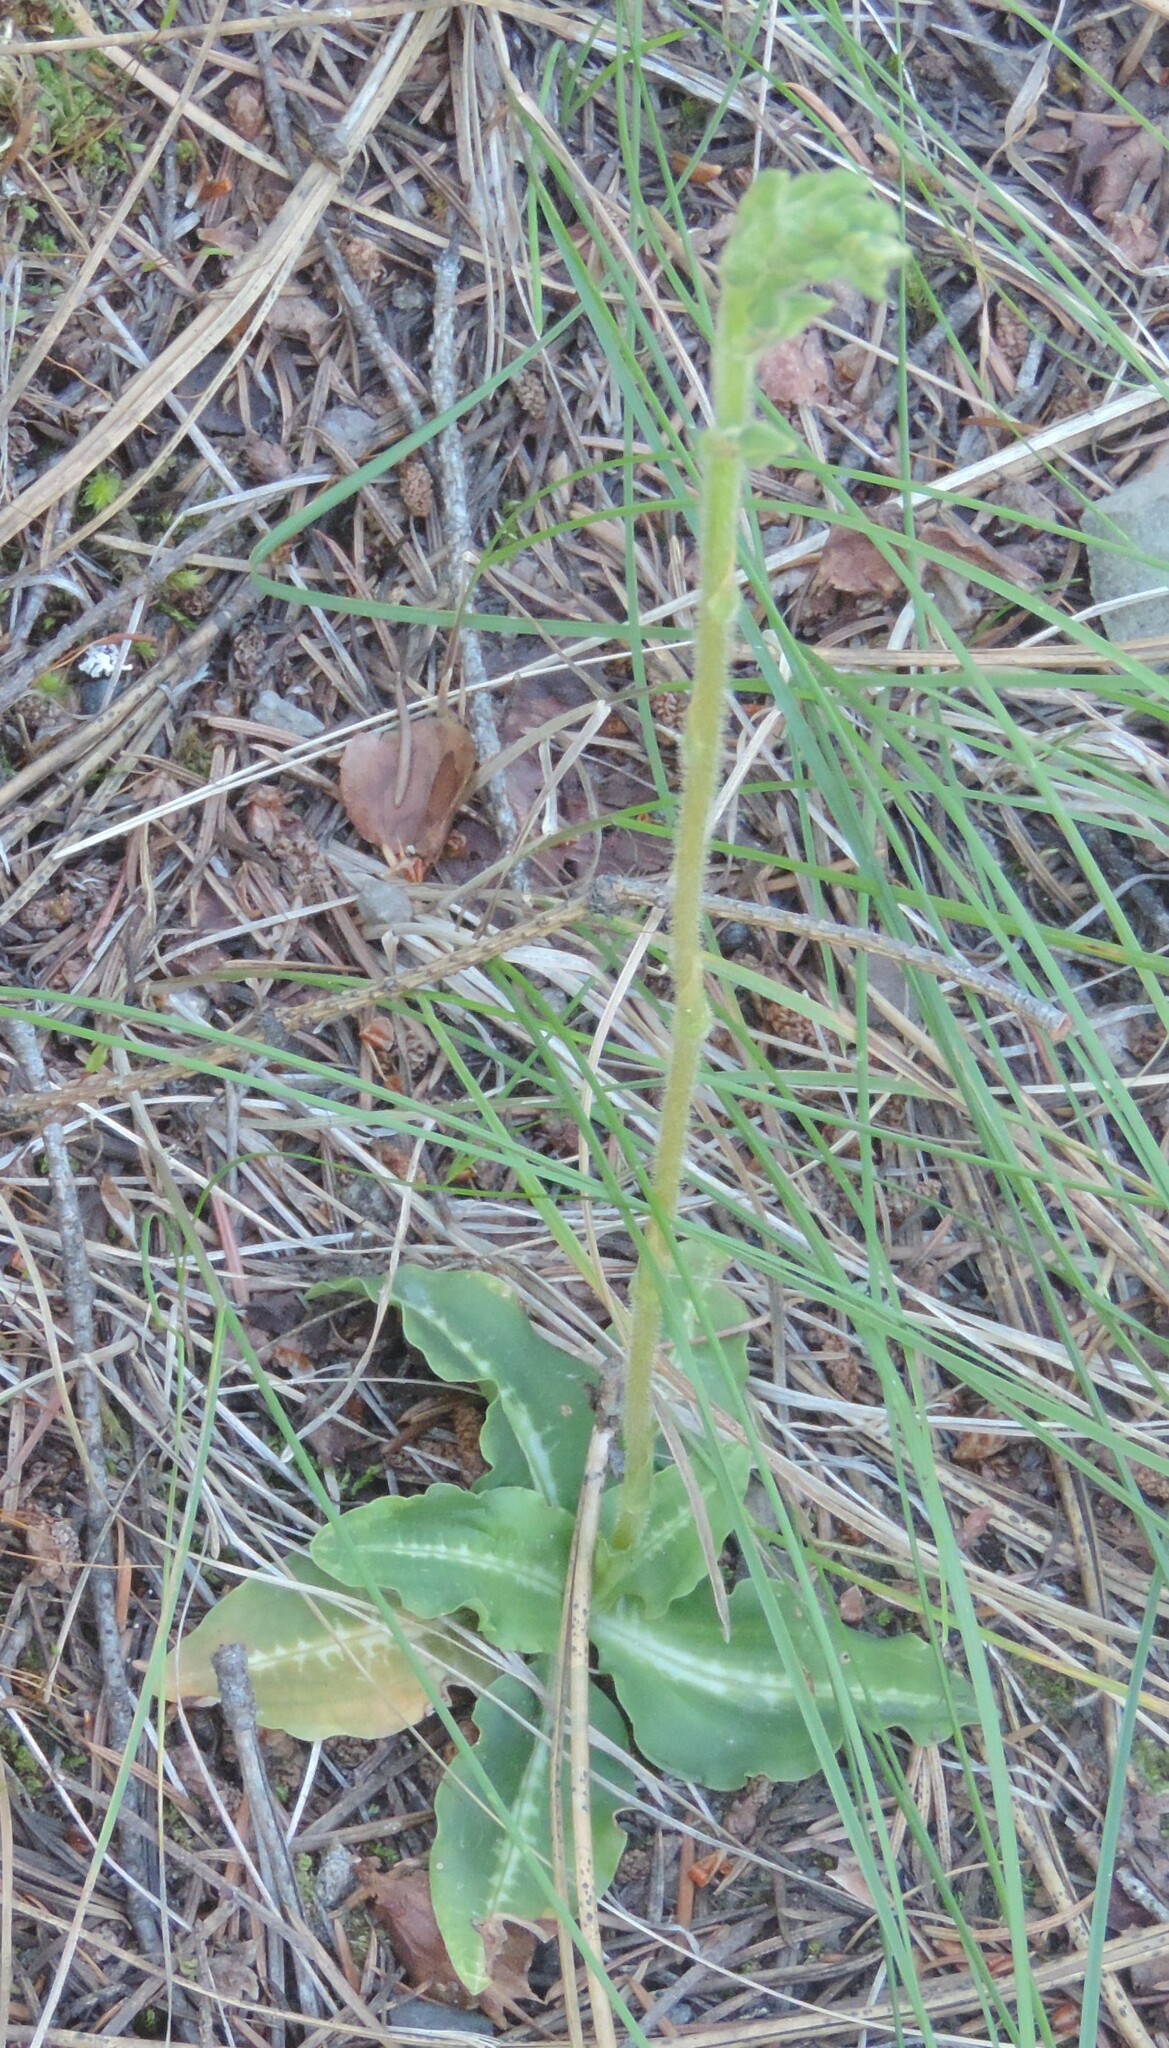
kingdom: Plantae
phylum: Tracheophyta
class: Liliopsida
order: Asparagales
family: Orchidaceae
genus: Goodyera
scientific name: Goodyera oblongifolia
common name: Giant rattlesnake-plantain
